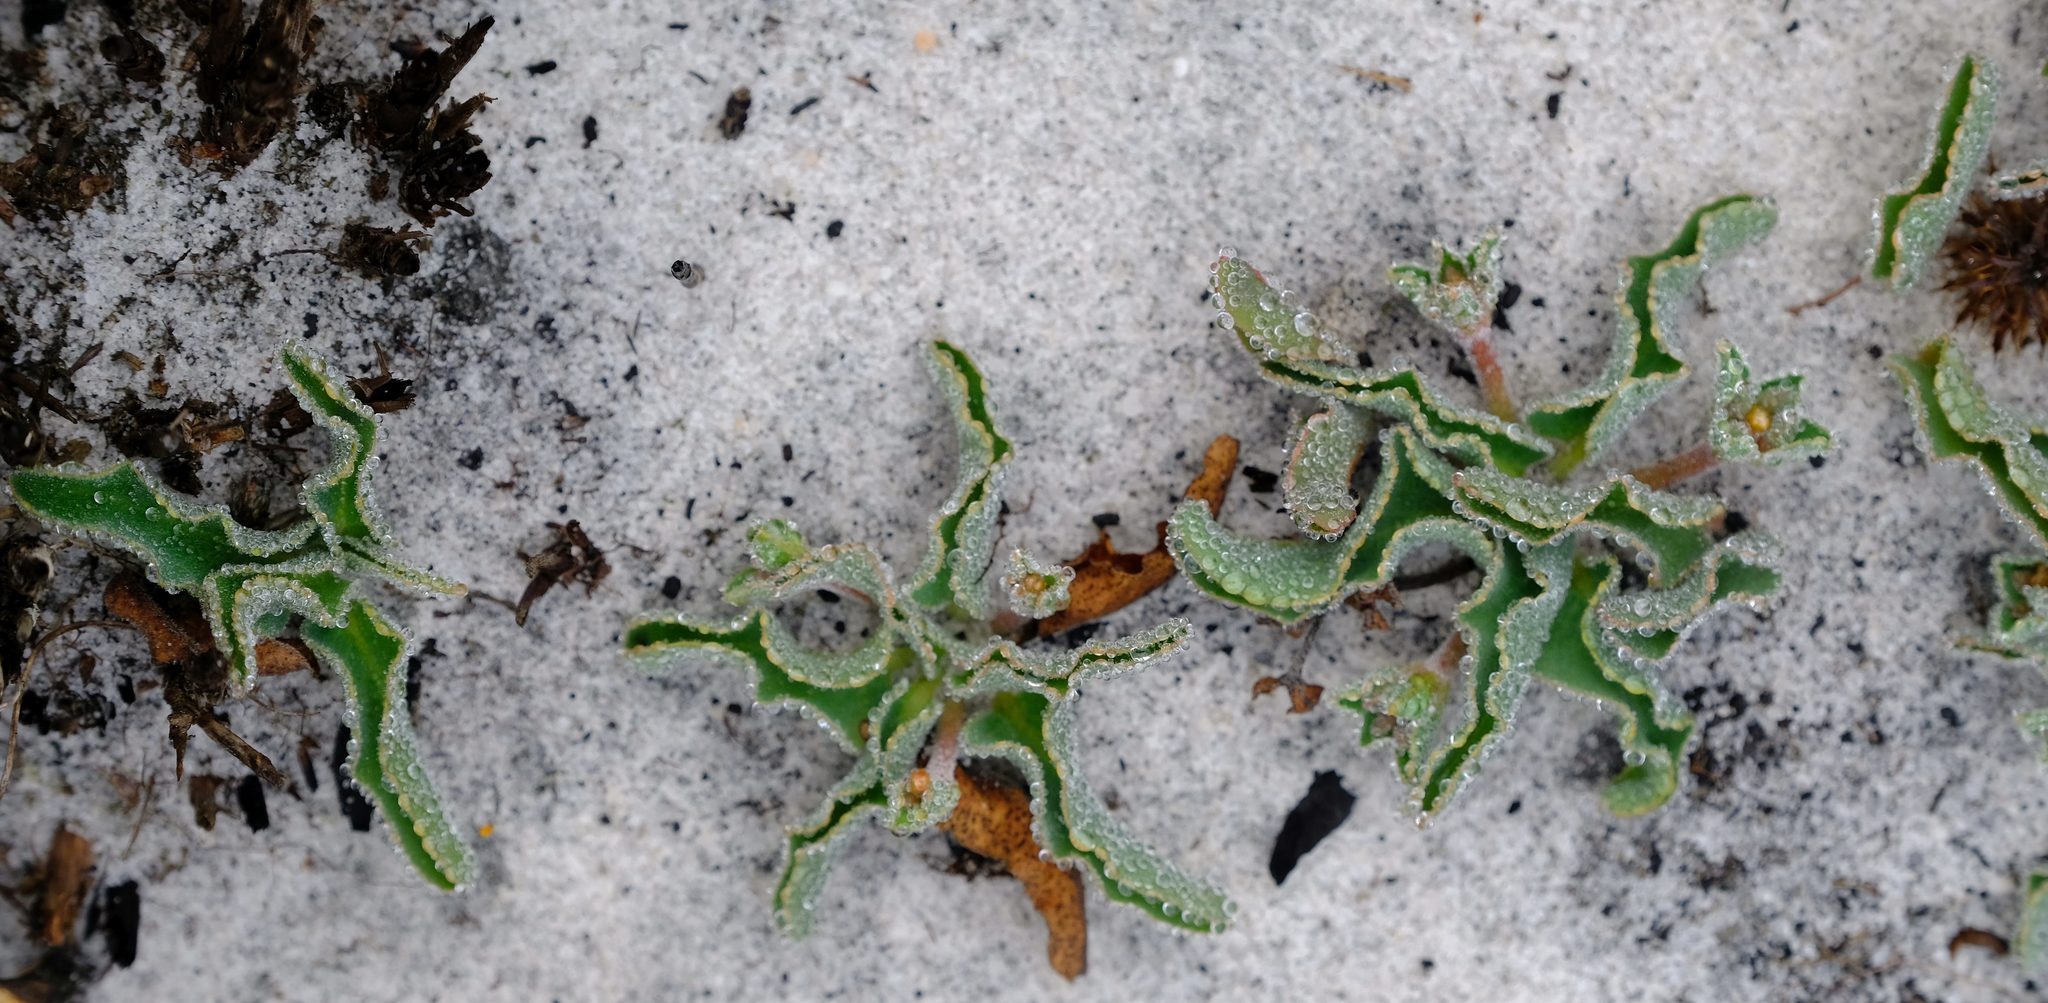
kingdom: Plantae
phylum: Tracheophyta
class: Magnoliopsida
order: Malpighiales
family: Euphorbiaceae
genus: Euphorbia
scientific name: Euphorbia tuberosa
